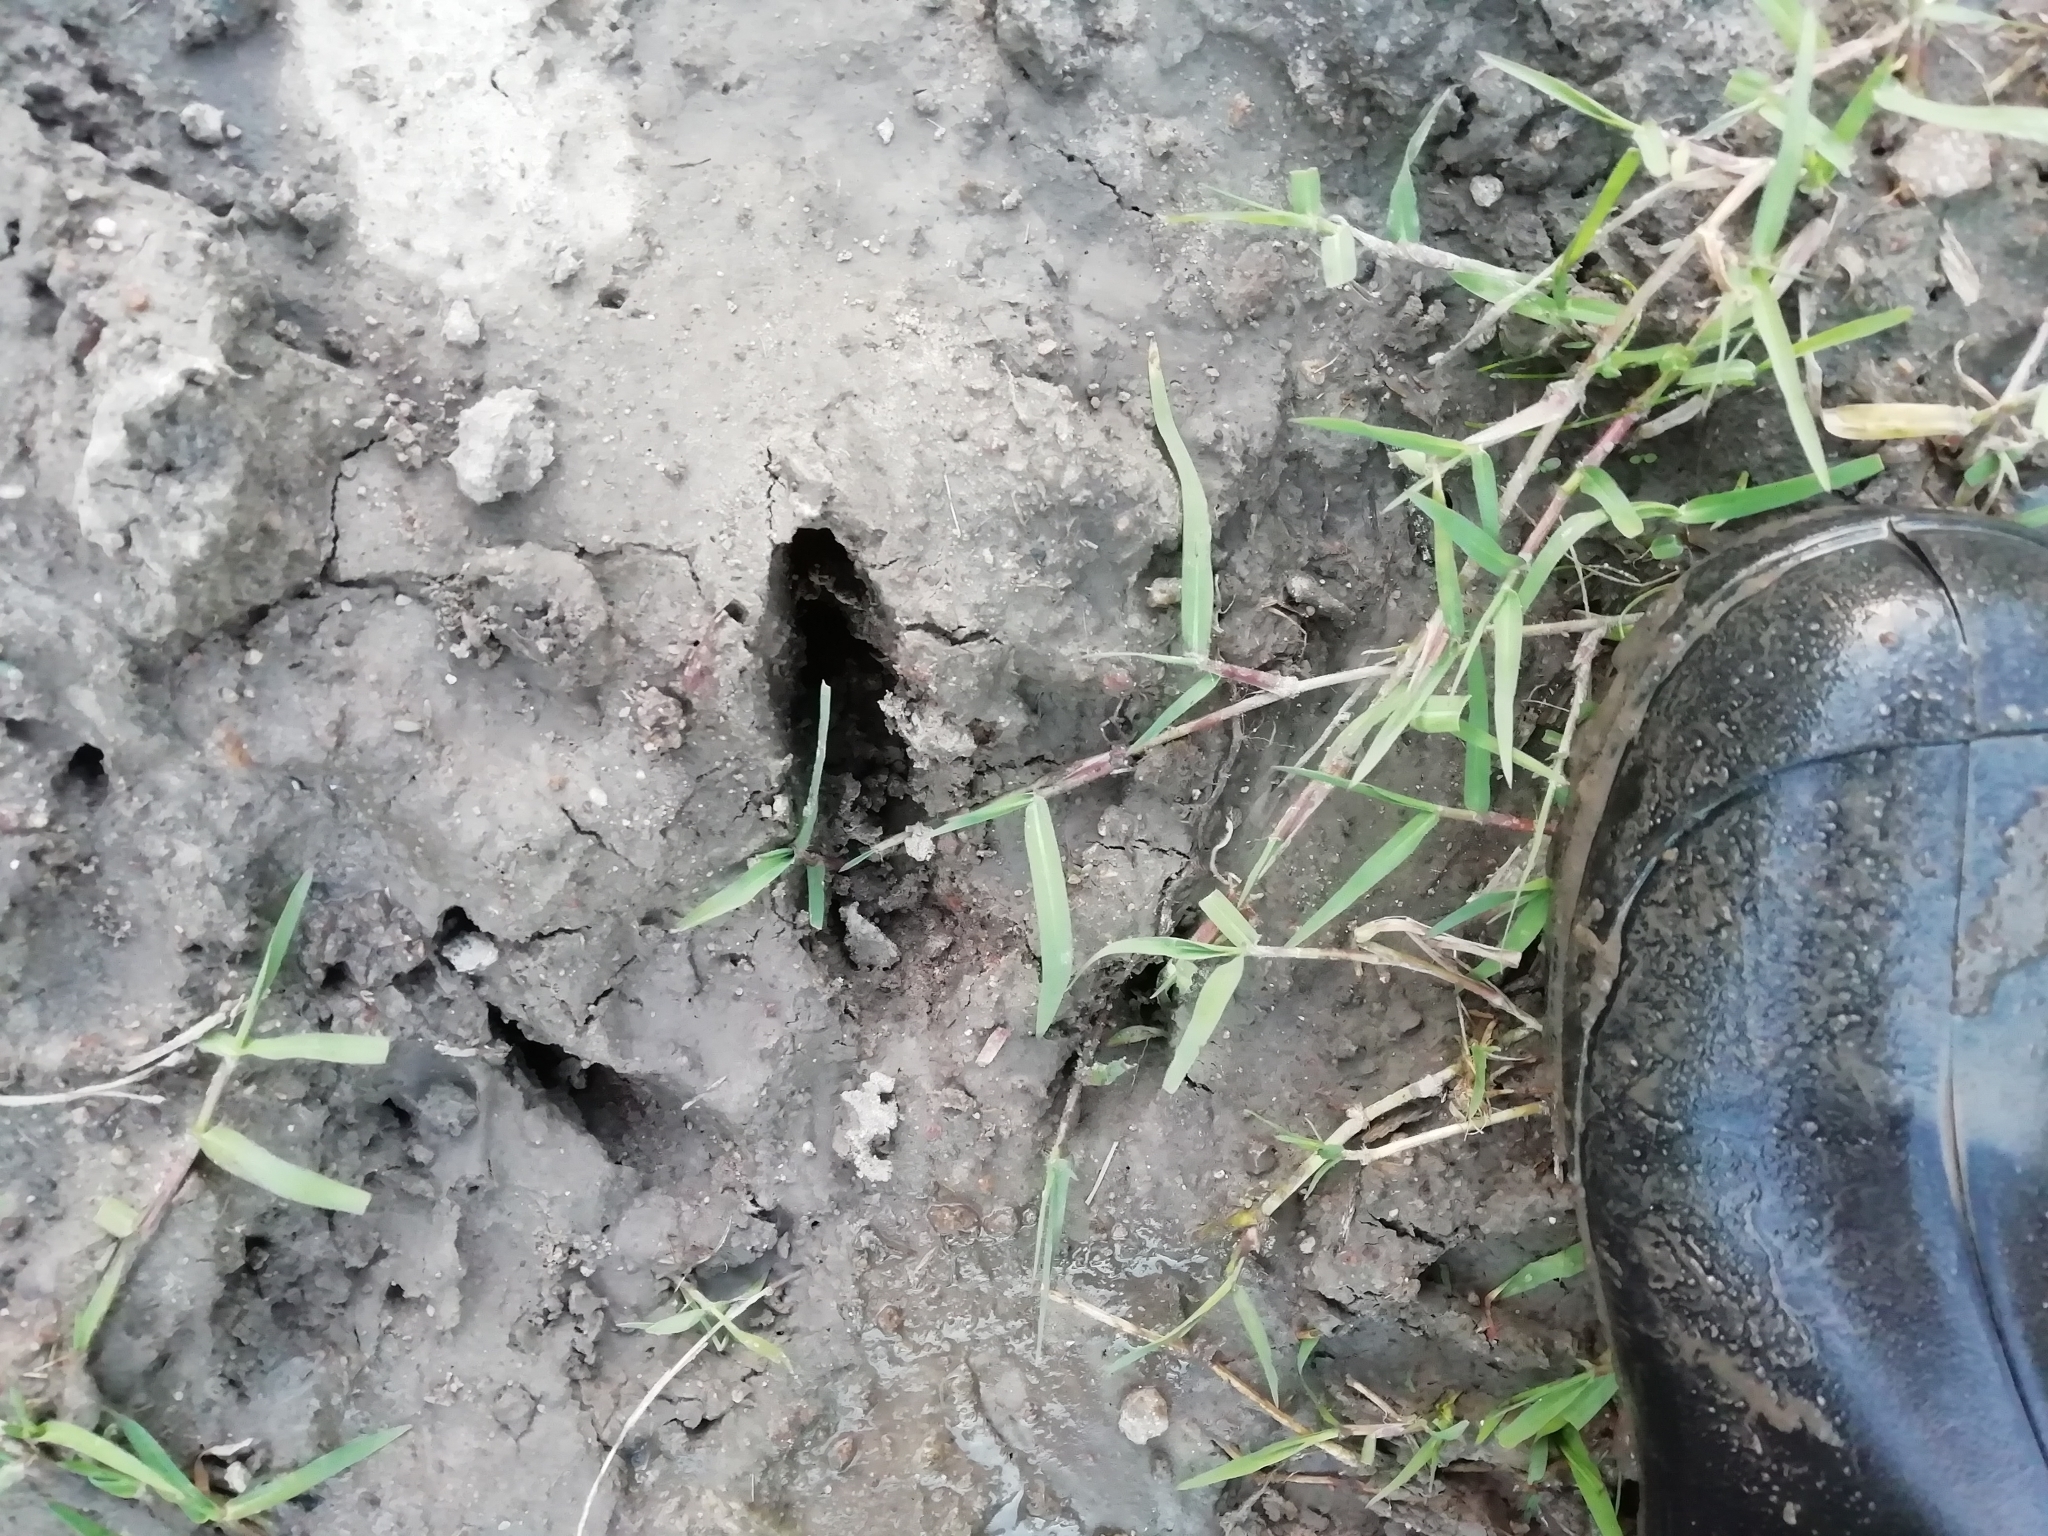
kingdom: Animalia
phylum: Chordata
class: Aves
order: Rheiformes
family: Rheidae
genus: Rhea
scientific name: Rhea americana
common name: Greater rhea
